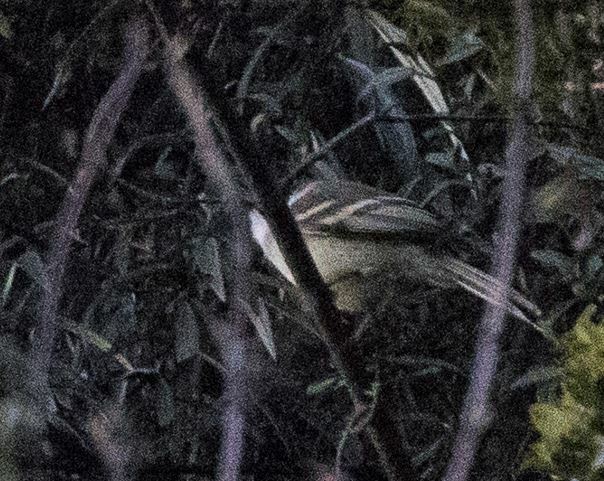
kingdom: Animalia
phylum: Chordata
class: Aves
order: Passeriformes
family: Tyrannidae
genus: Mecocerculus
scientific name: Mecocerculus leucophrys
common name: White-throated tyrannulet
